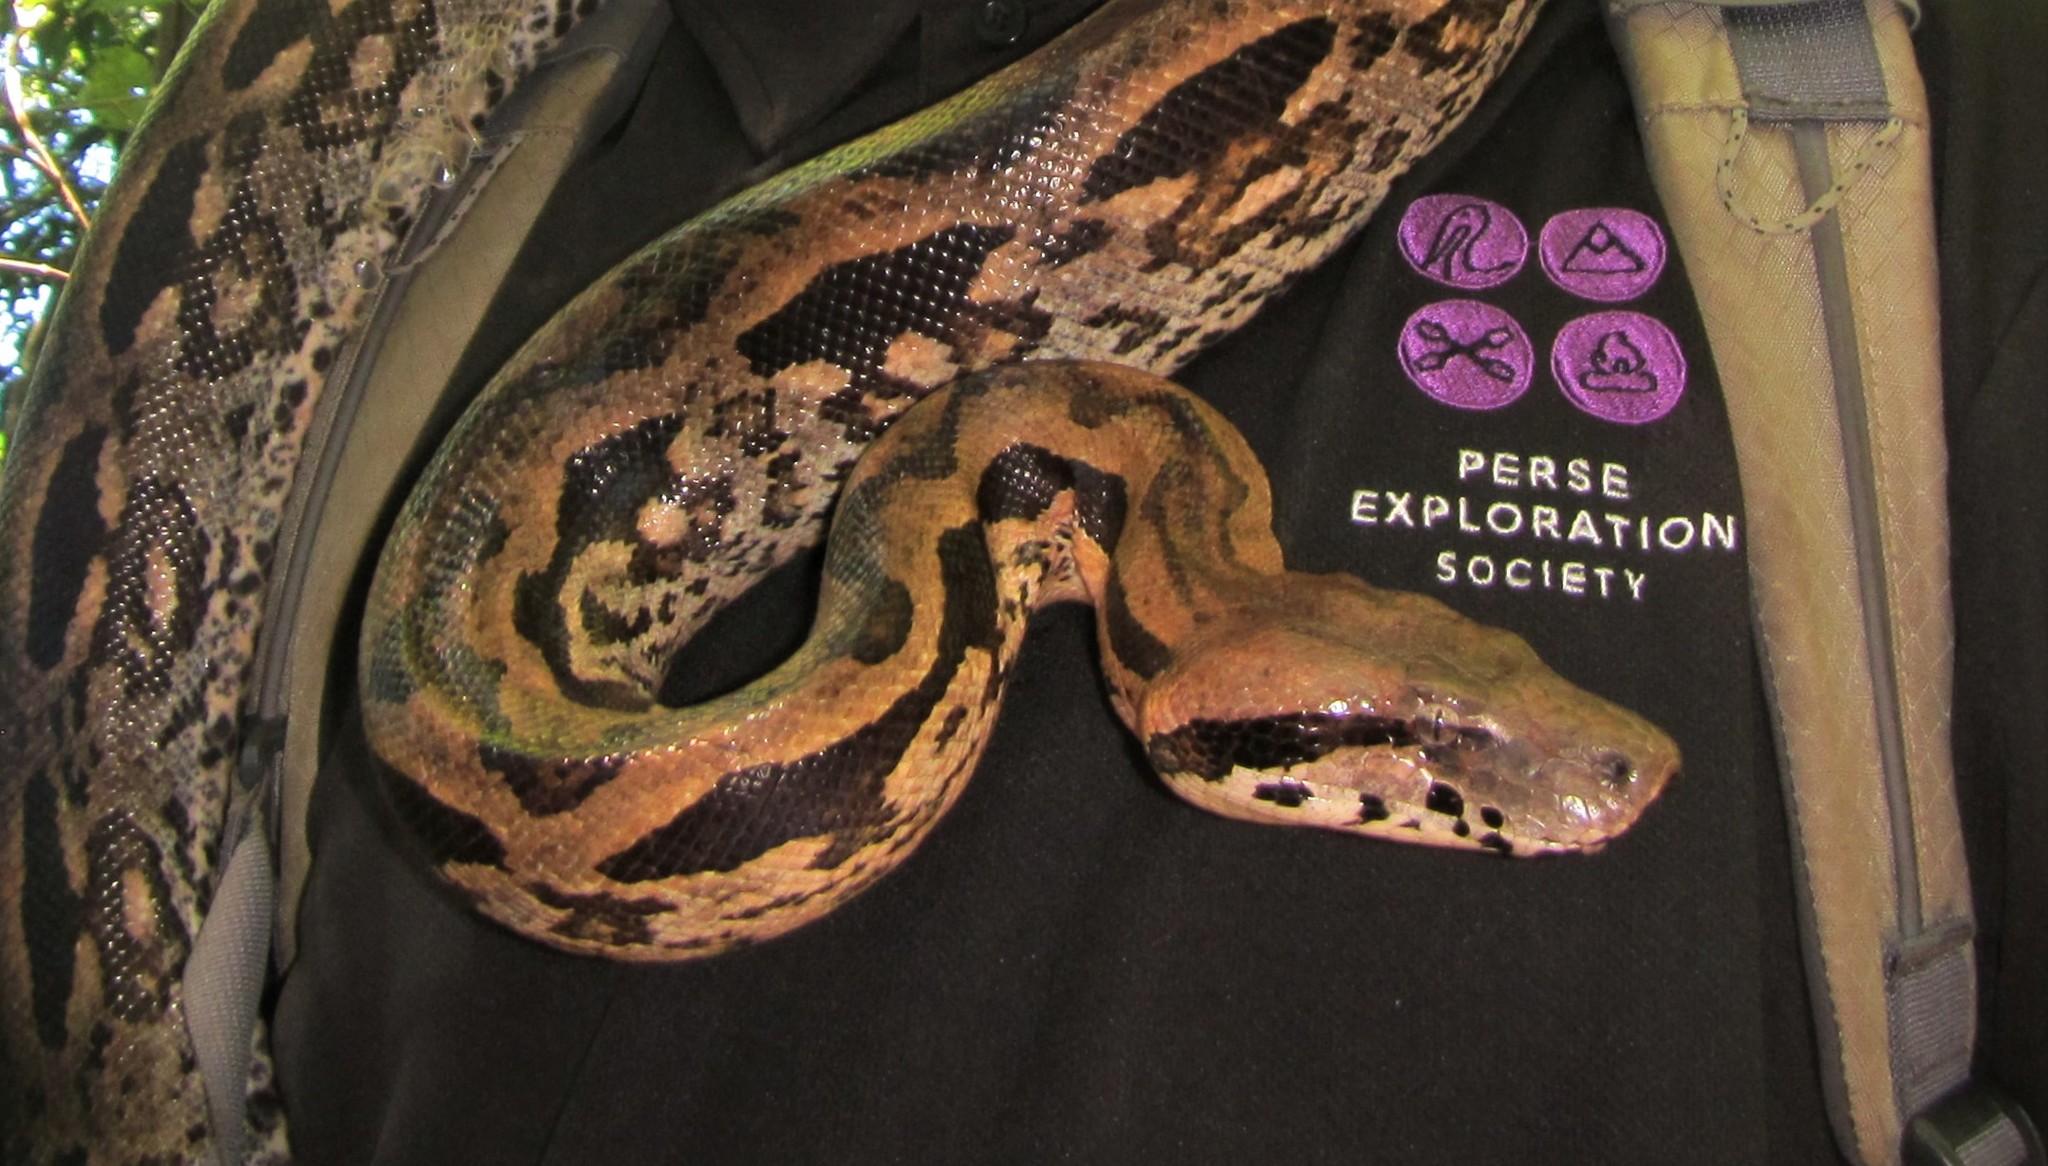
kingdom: Animalia
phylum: Chordata
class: Squamata
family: Boidae
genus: Acrantophis
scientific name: Acrantophis madagascariensis
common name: Madagascar boa
